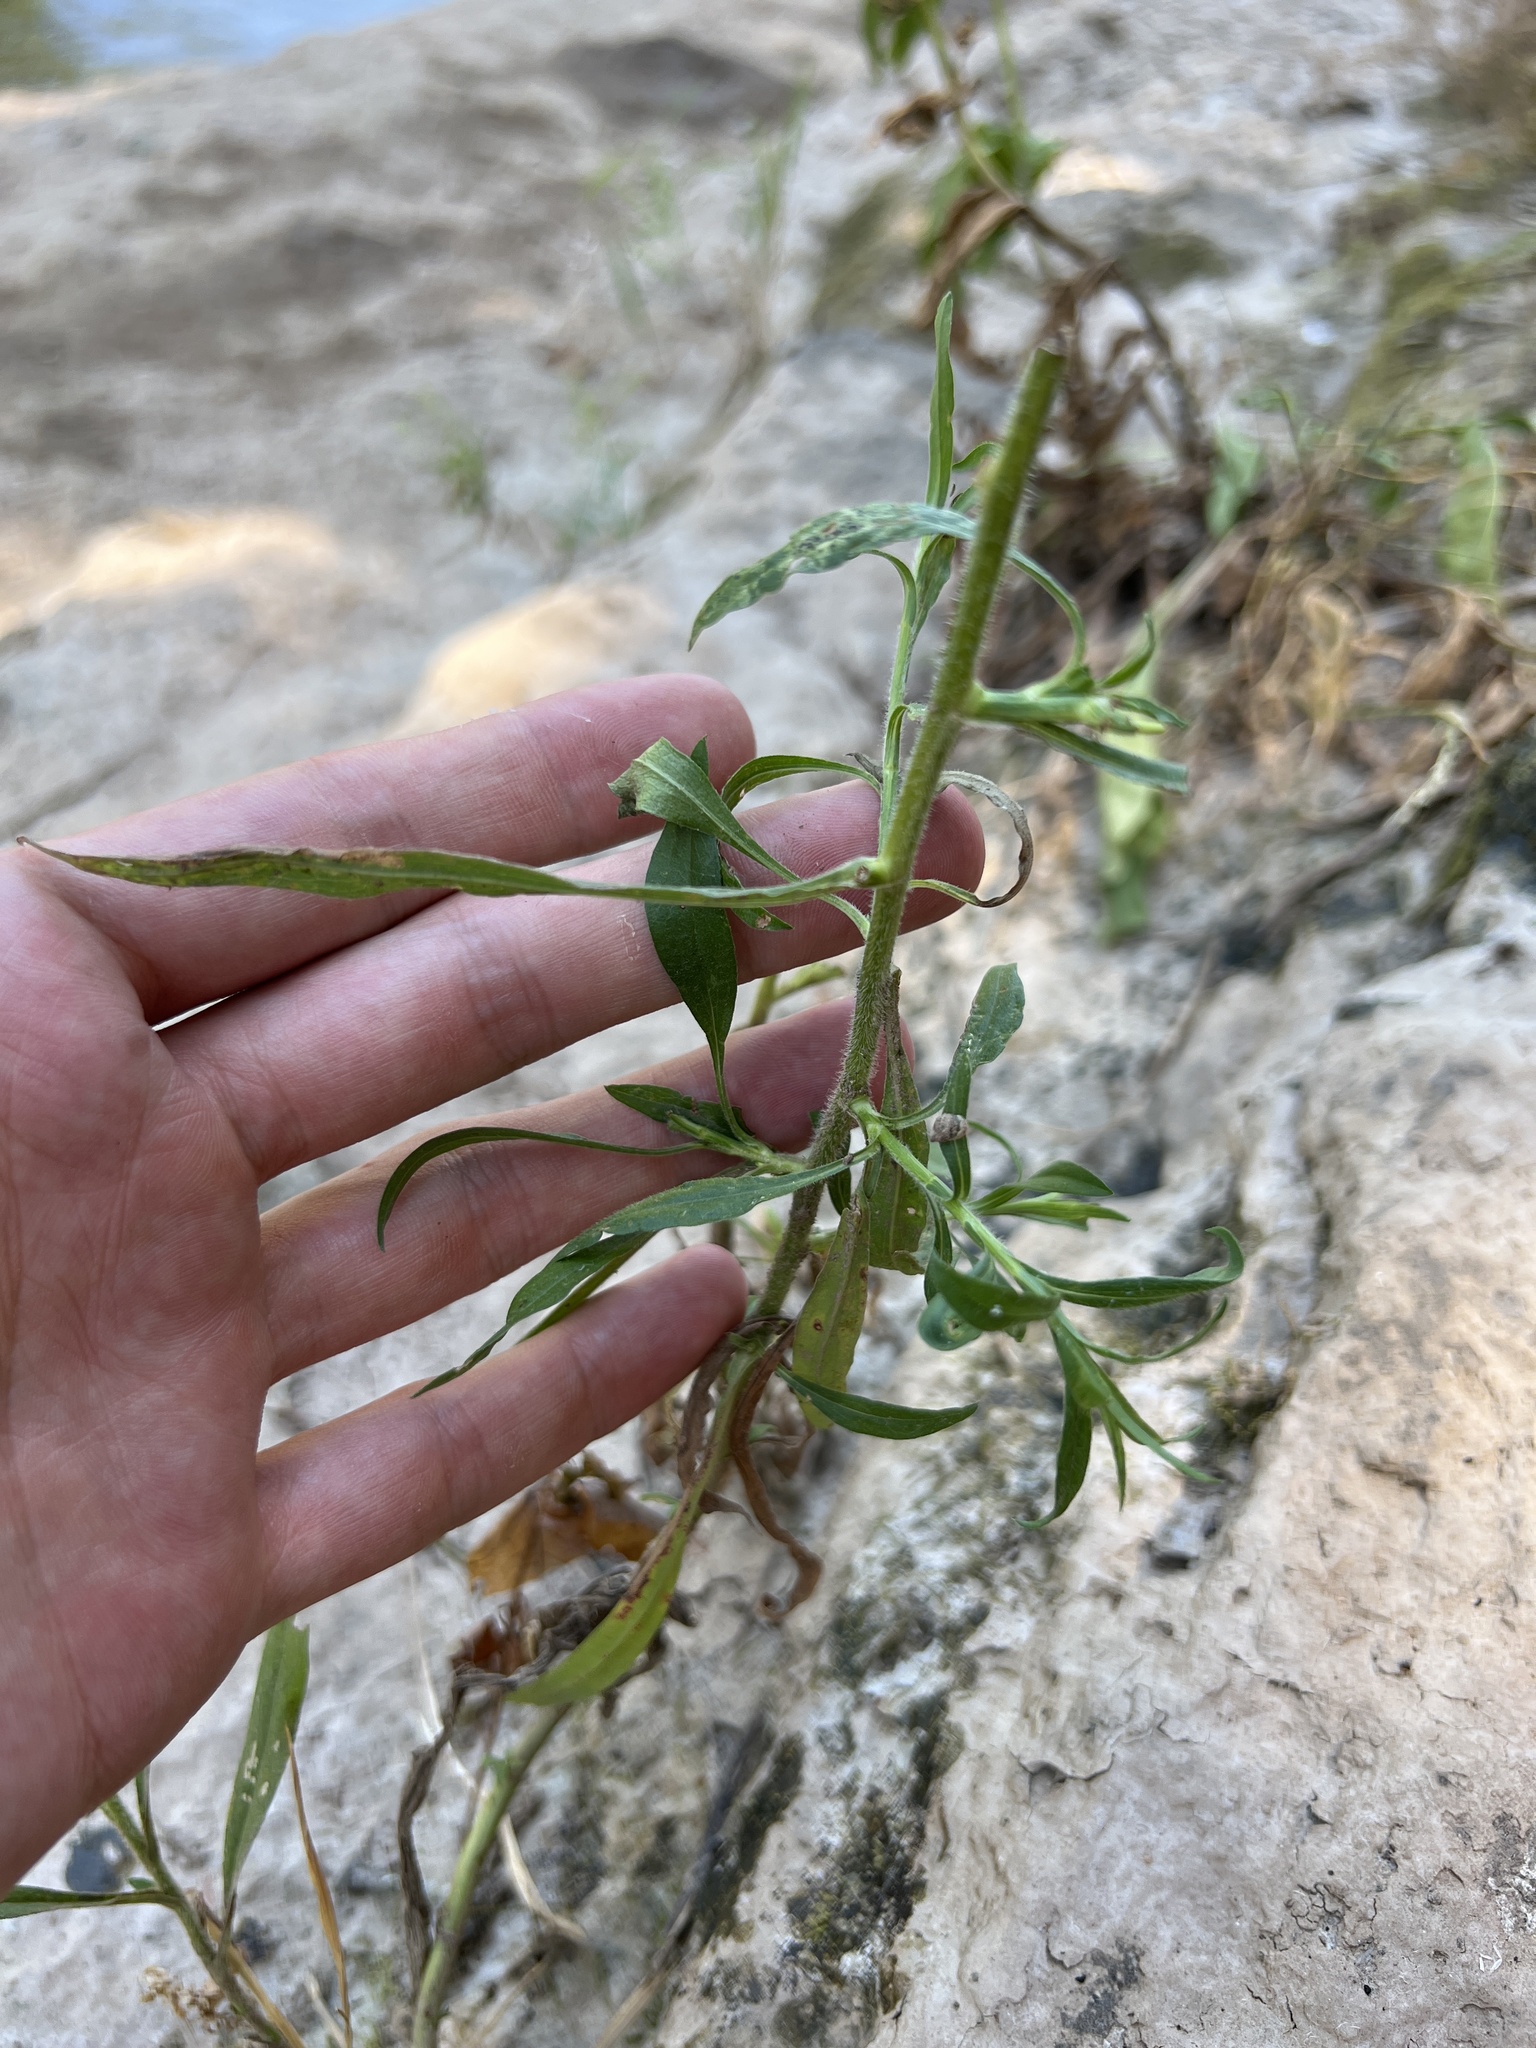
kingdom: Plantae
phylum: Tracheophyta
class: Magnoliopsida
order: Asterales
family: Asteraceae
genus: Symphyotrichum
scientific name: Symphyotrichum pilosum
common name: Awl aster
